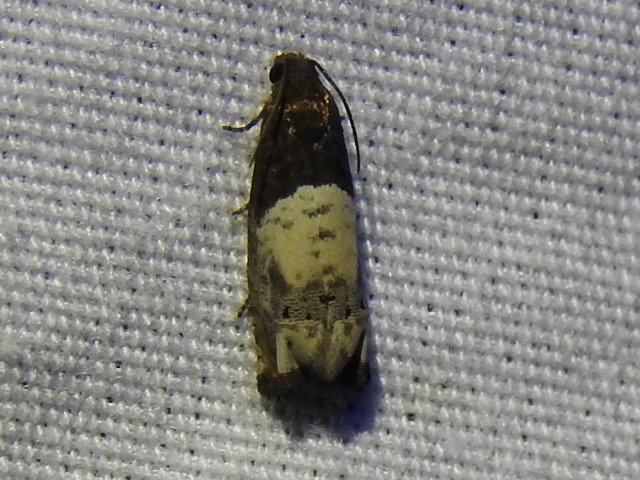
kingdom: Animalia
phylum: Arthropoda
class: Insecta
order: Lepidoptera
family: Tortricidae
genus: Epiblema
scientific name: Epiblema scudderiana
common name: Goldenrod gall moth
